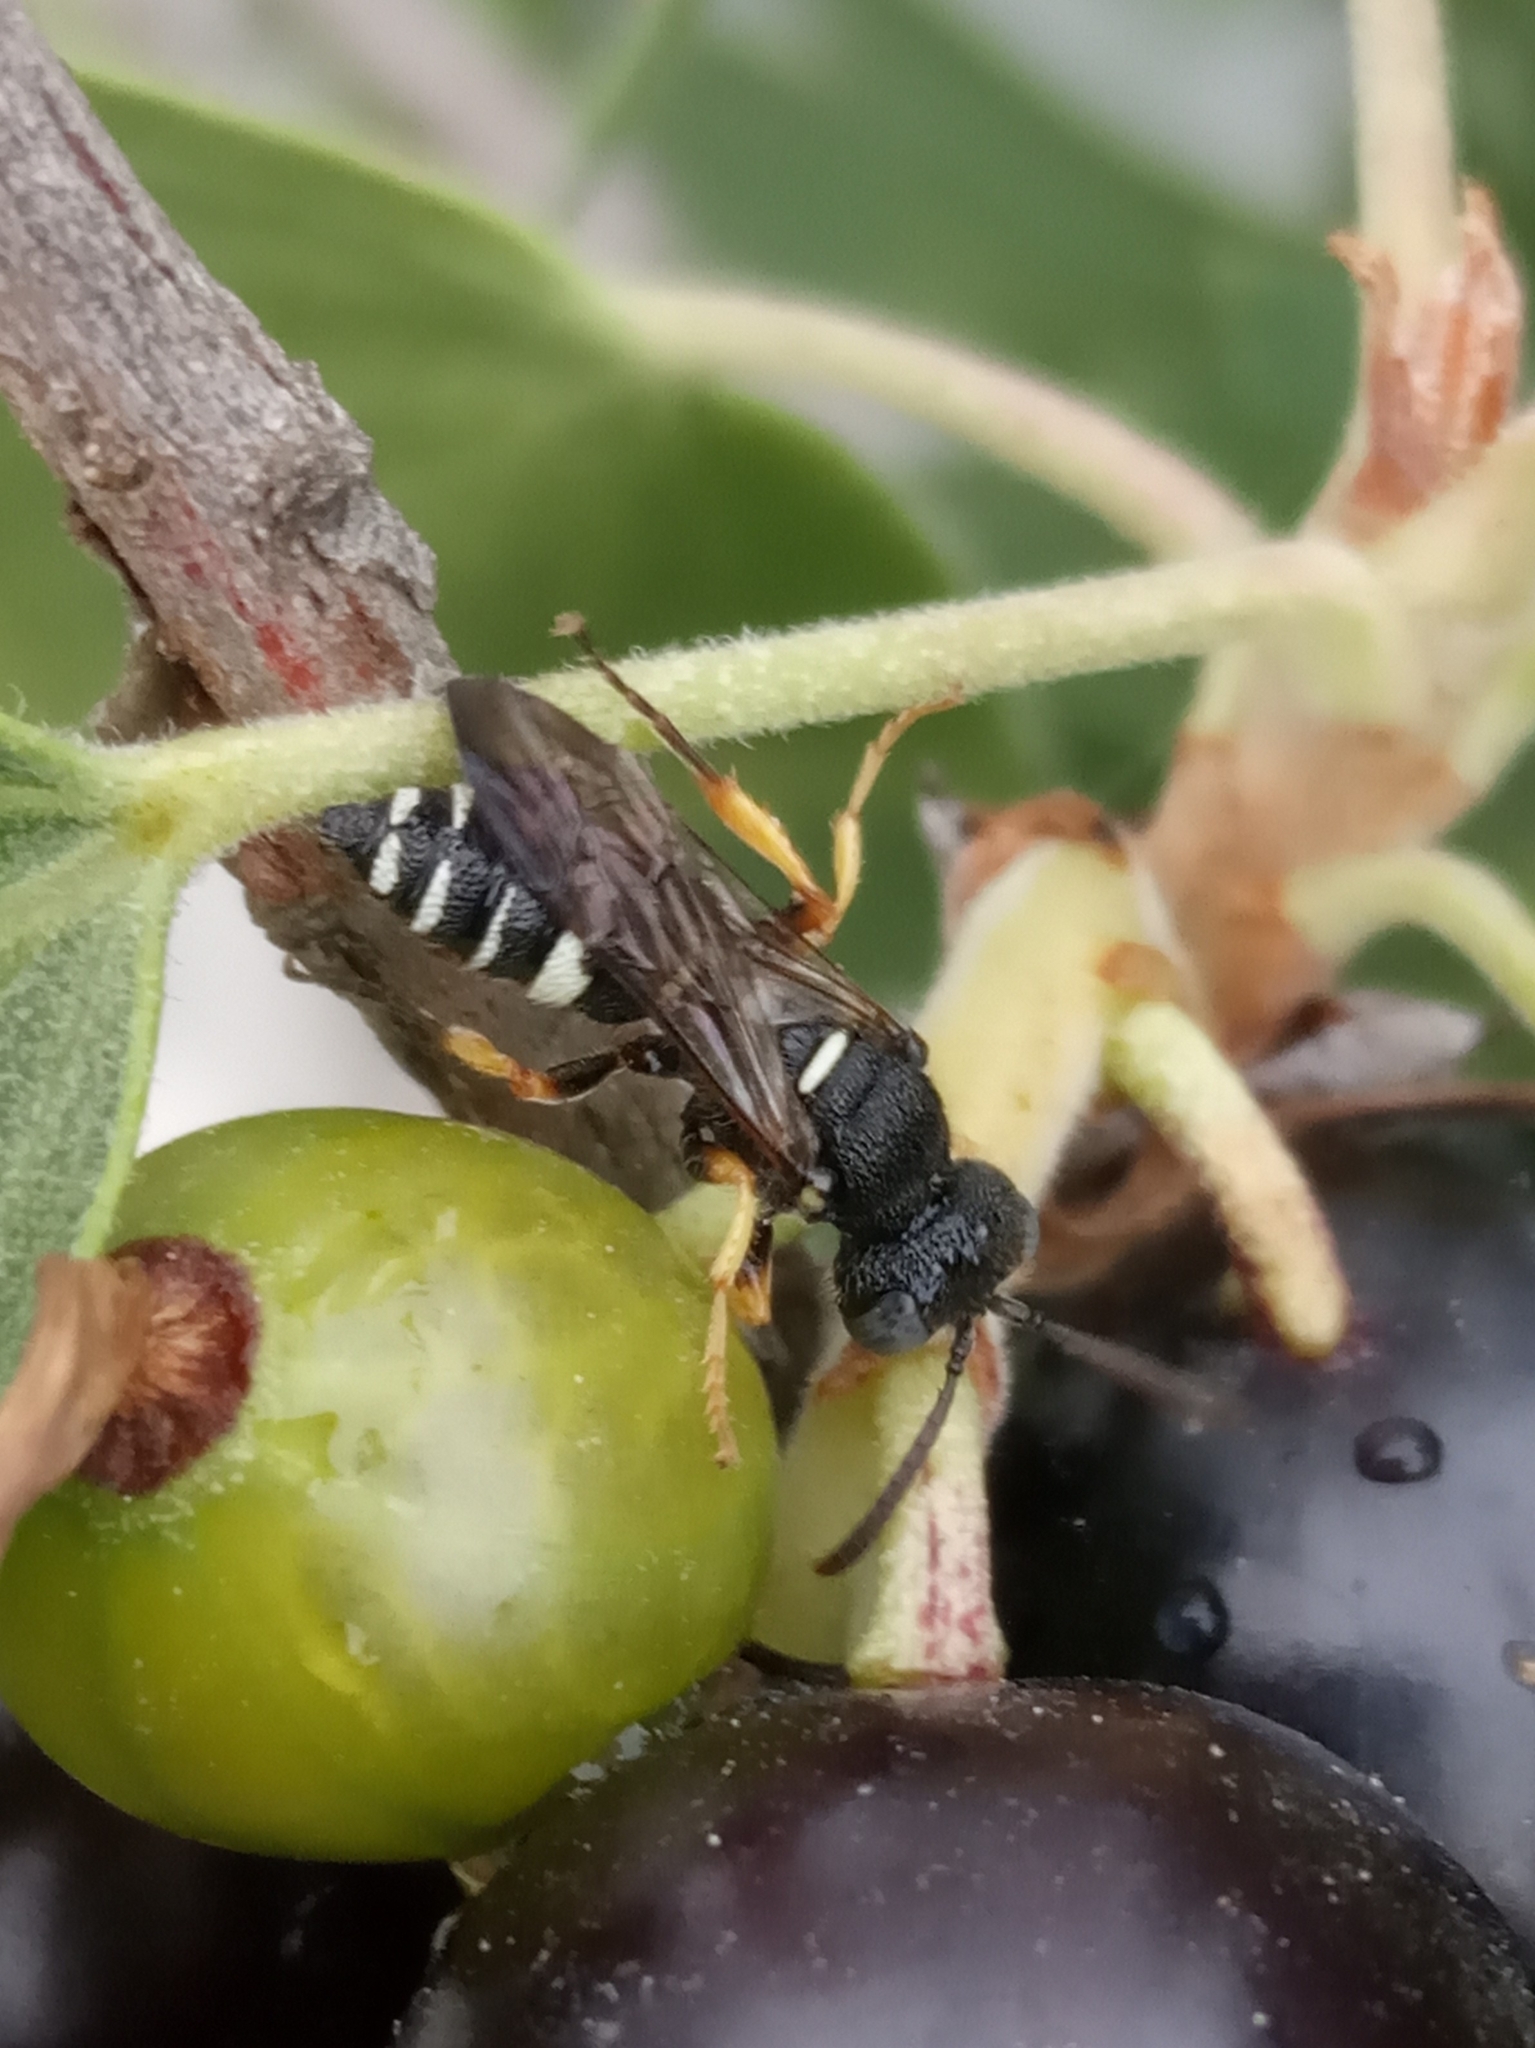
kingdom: Animalia
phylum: Arthropoda
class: Insecta
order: Hymenoptera
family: Crabronidae
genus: Cerceris
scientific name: Cerceris
